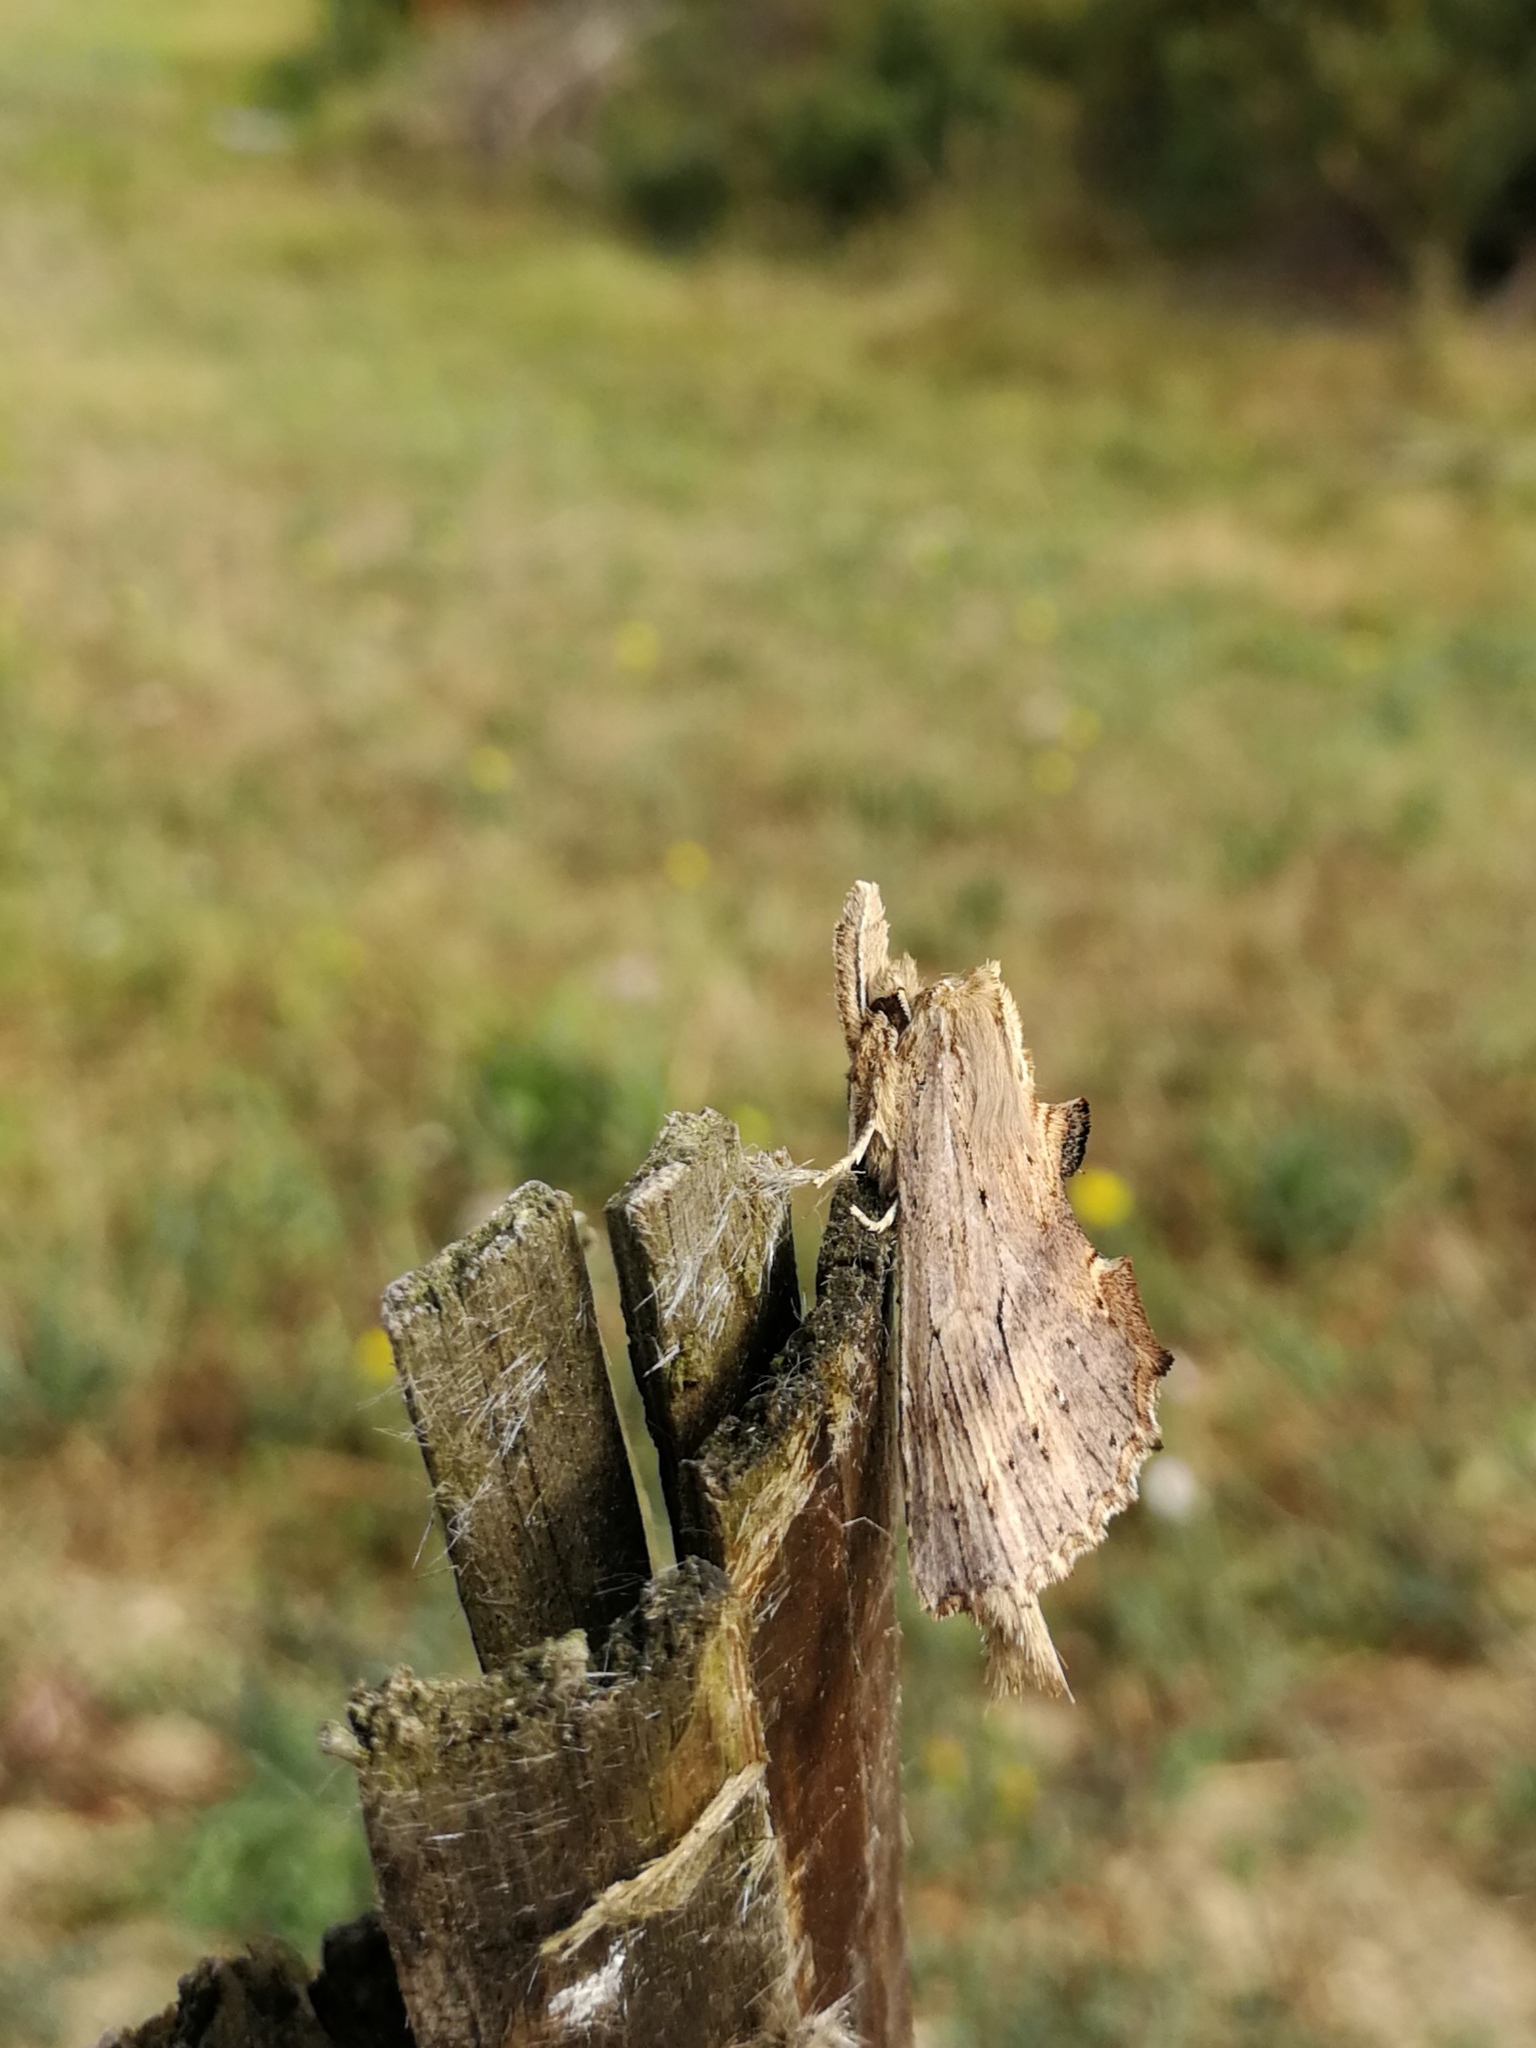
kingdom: Animalia
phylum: Arthropoda
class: Insecta
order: Lepidoptera
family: Notodontidae
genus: Pterostoma
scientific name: Pterostoma palpina
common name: Pale prominent
